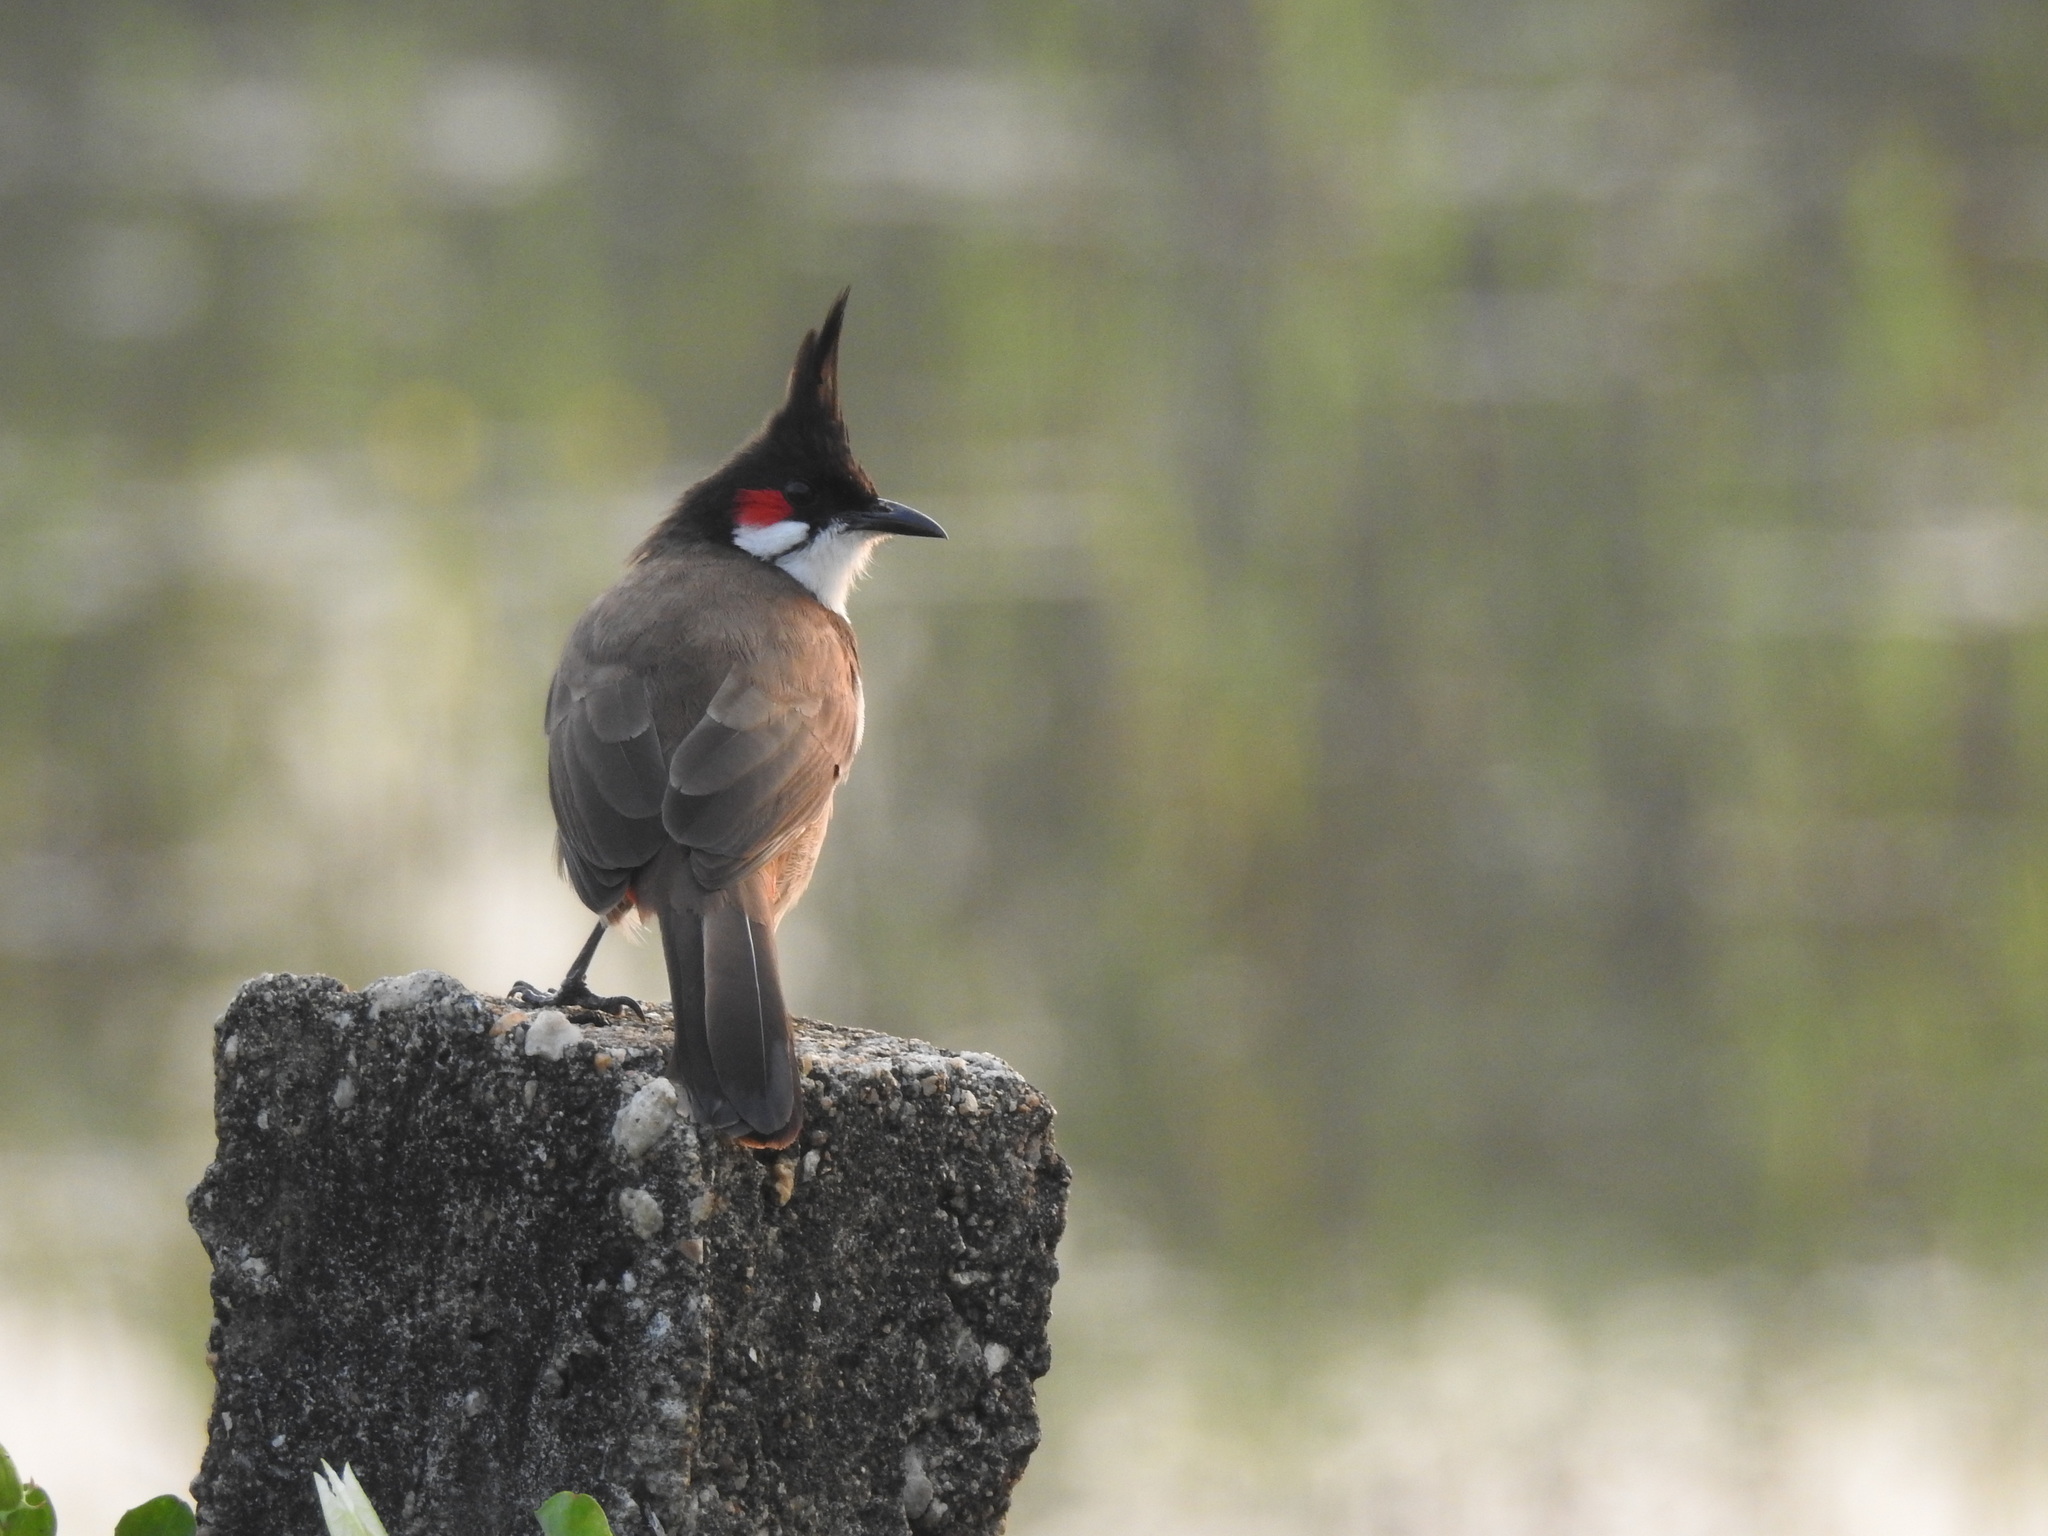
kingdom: Animalia
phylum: Chordata
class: Aves
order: Passeriformes
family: Pycnonotidae
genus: Pycnonotus
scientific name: Pycnonotus jocosus
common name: Red-whiskered bulbul
